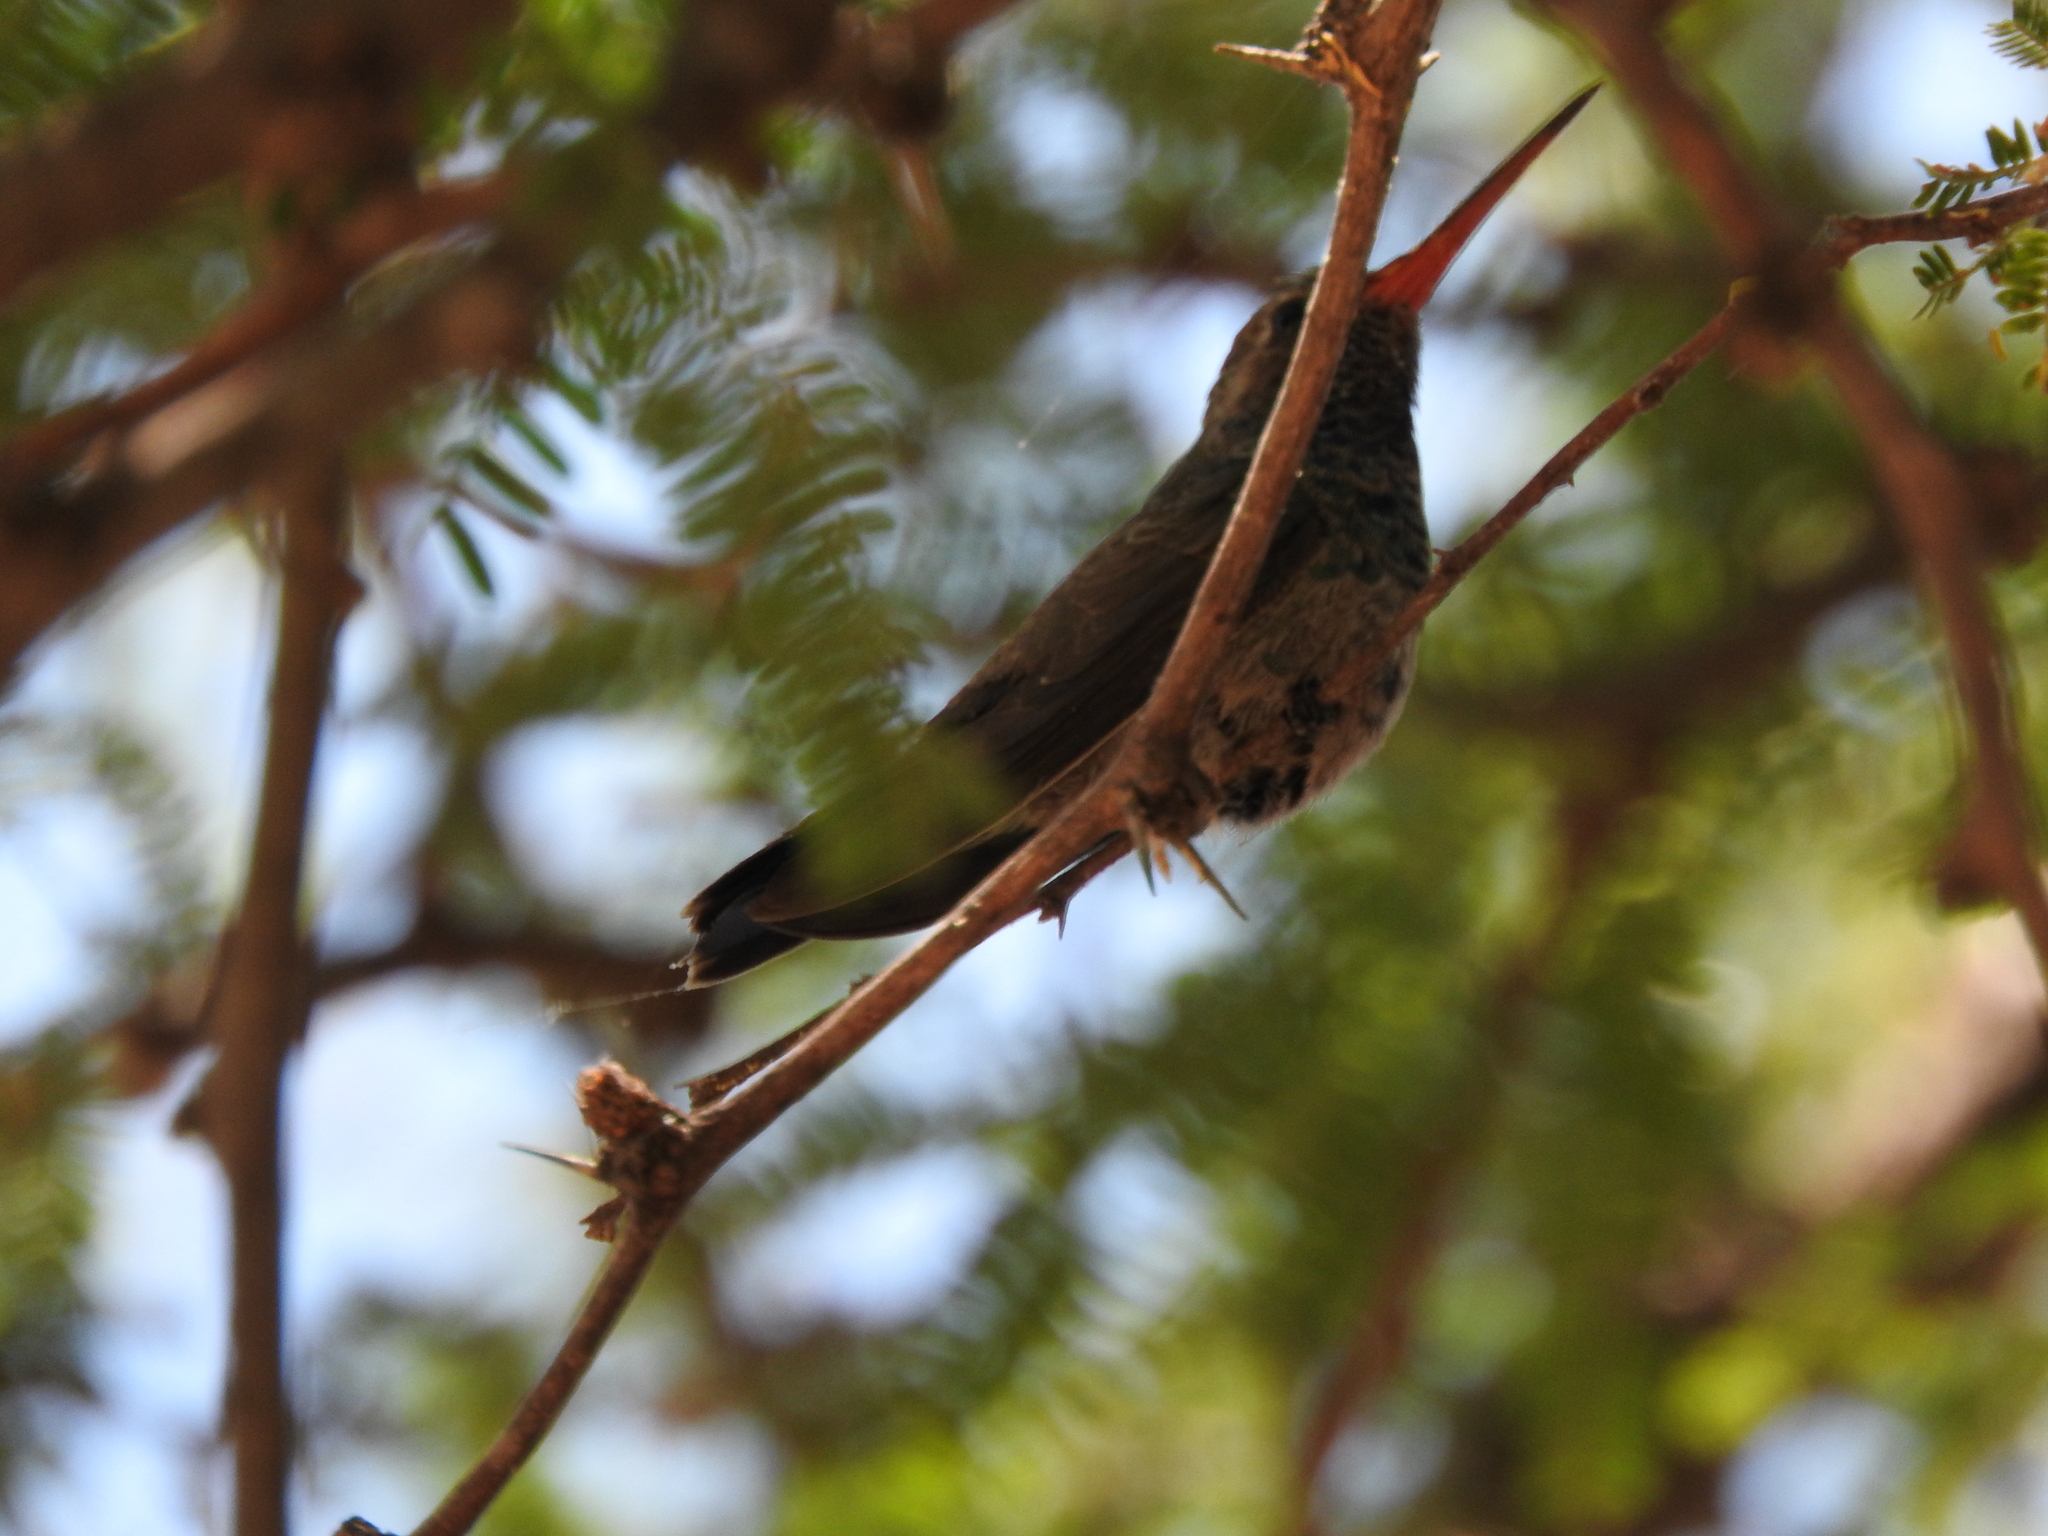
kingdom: Animalia
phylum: Chordata
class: Aves
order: Apodiformes
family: Trochilidae
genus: Cynanthus
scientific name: Cynanthus latirostris
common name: Broad-billed hummingbird
